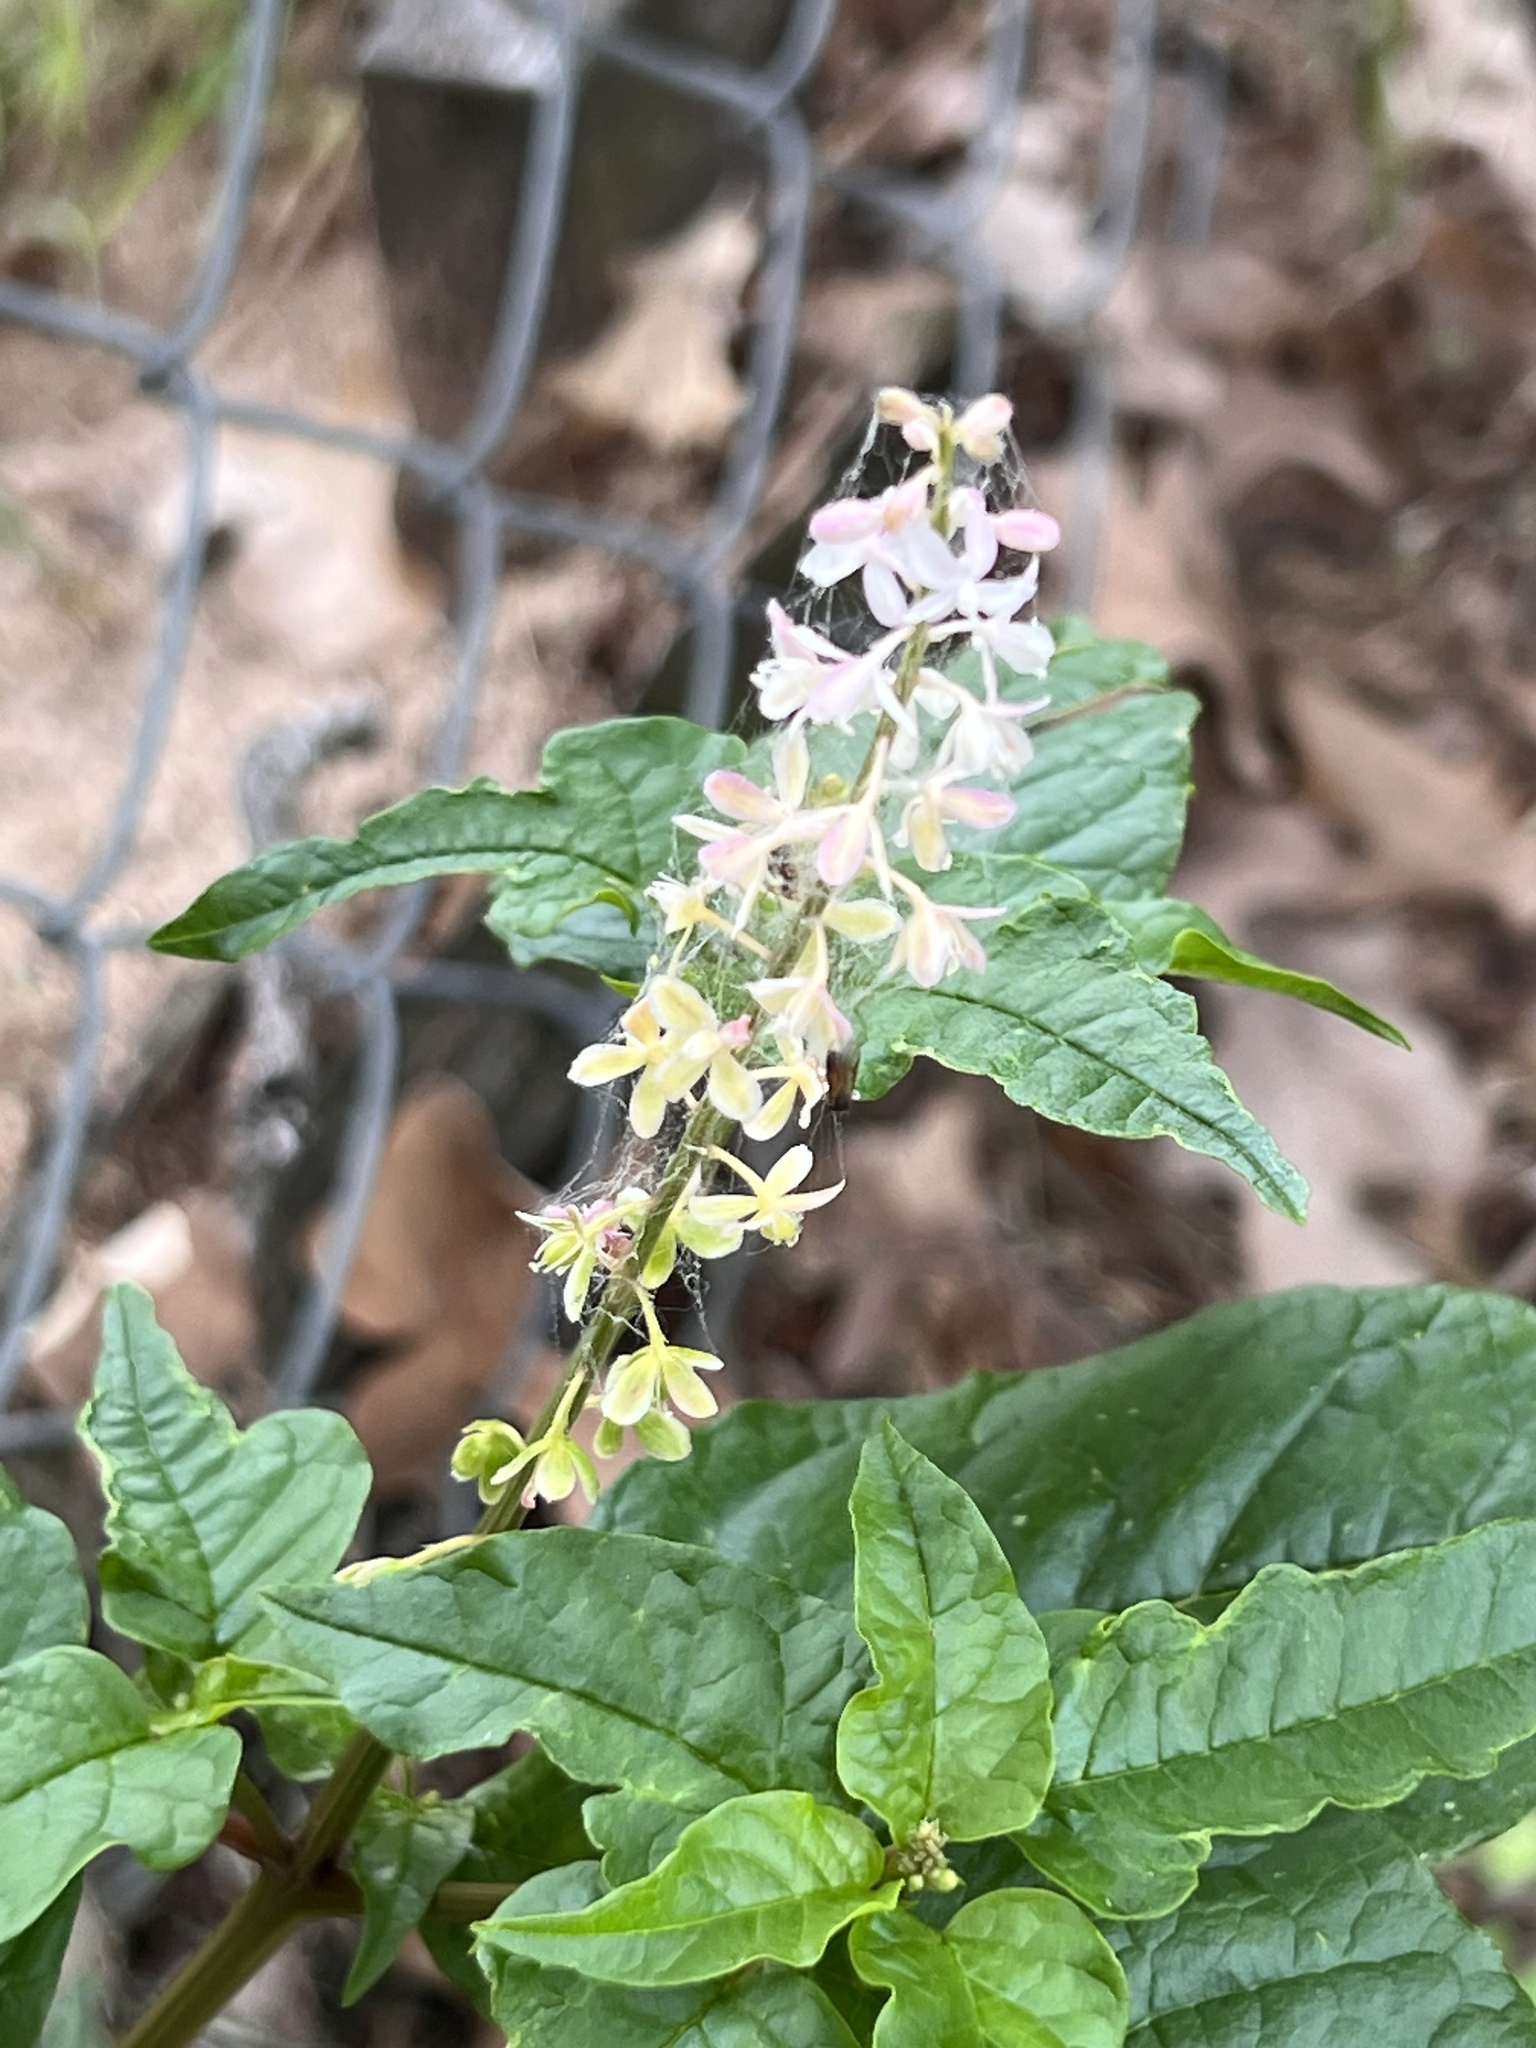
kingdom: Plantae
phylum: Tracheophyta
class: Magnoliopsida
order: Caryophyllales
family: Phytolaccaceae
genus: Rivina
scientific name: Rivina humilis
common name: Rougeplant
